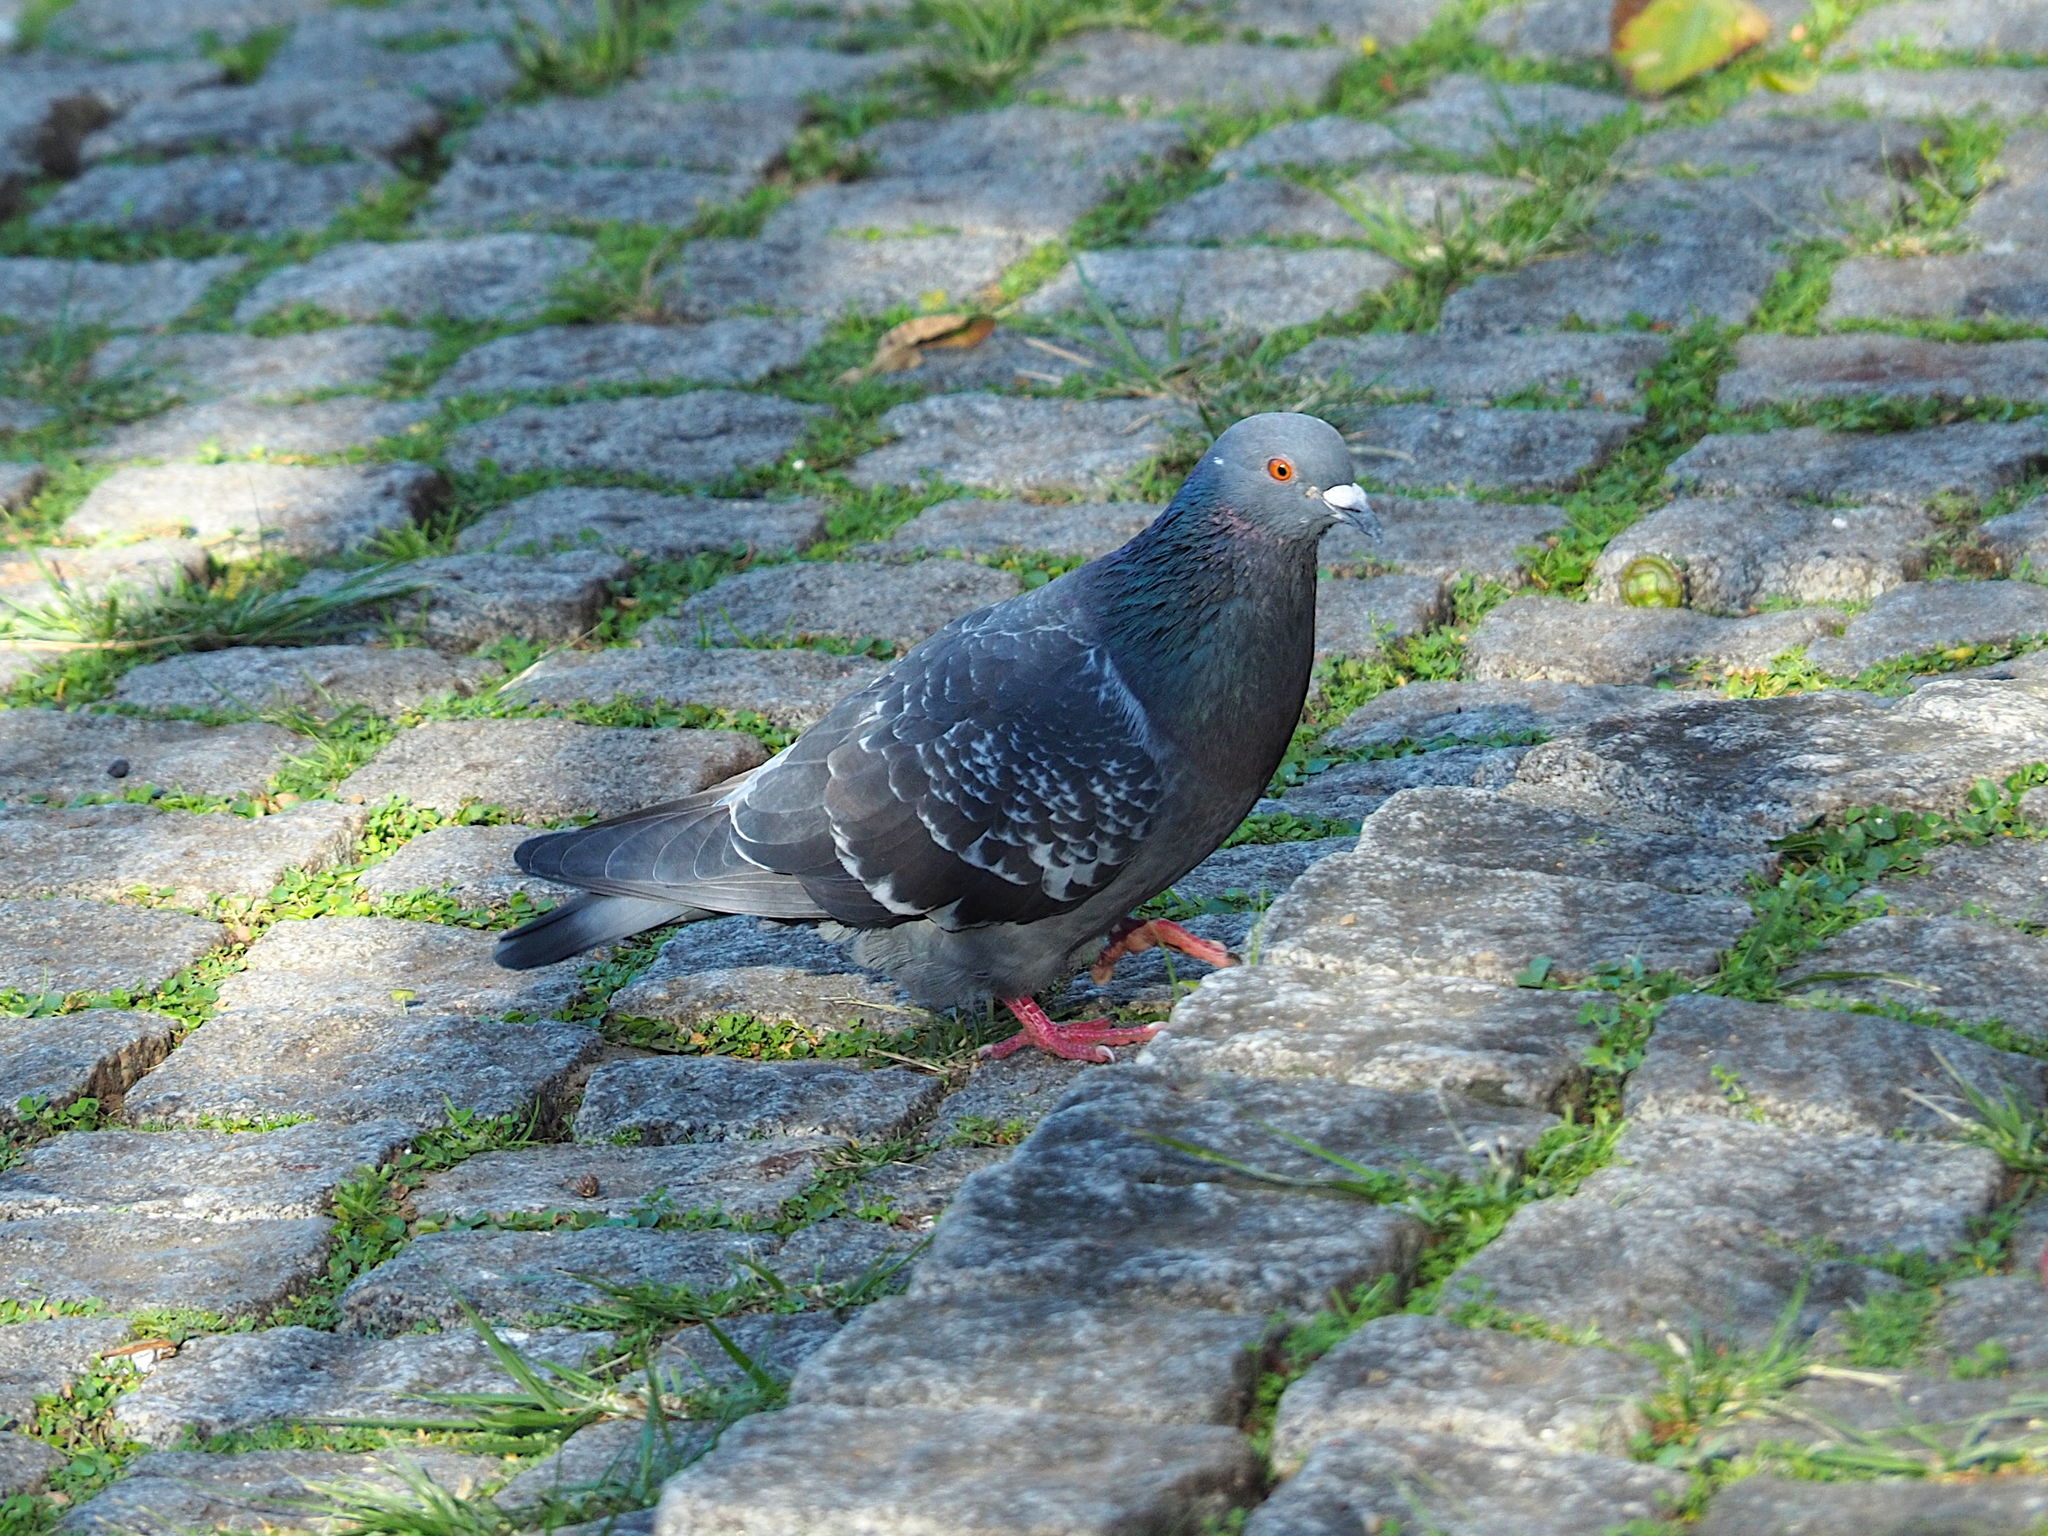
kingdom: Animalia
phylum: Chordata
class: Aves
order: Columbiformes
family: Columbidae
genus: Columba
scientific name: Columba livia
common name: Rock pigeon
